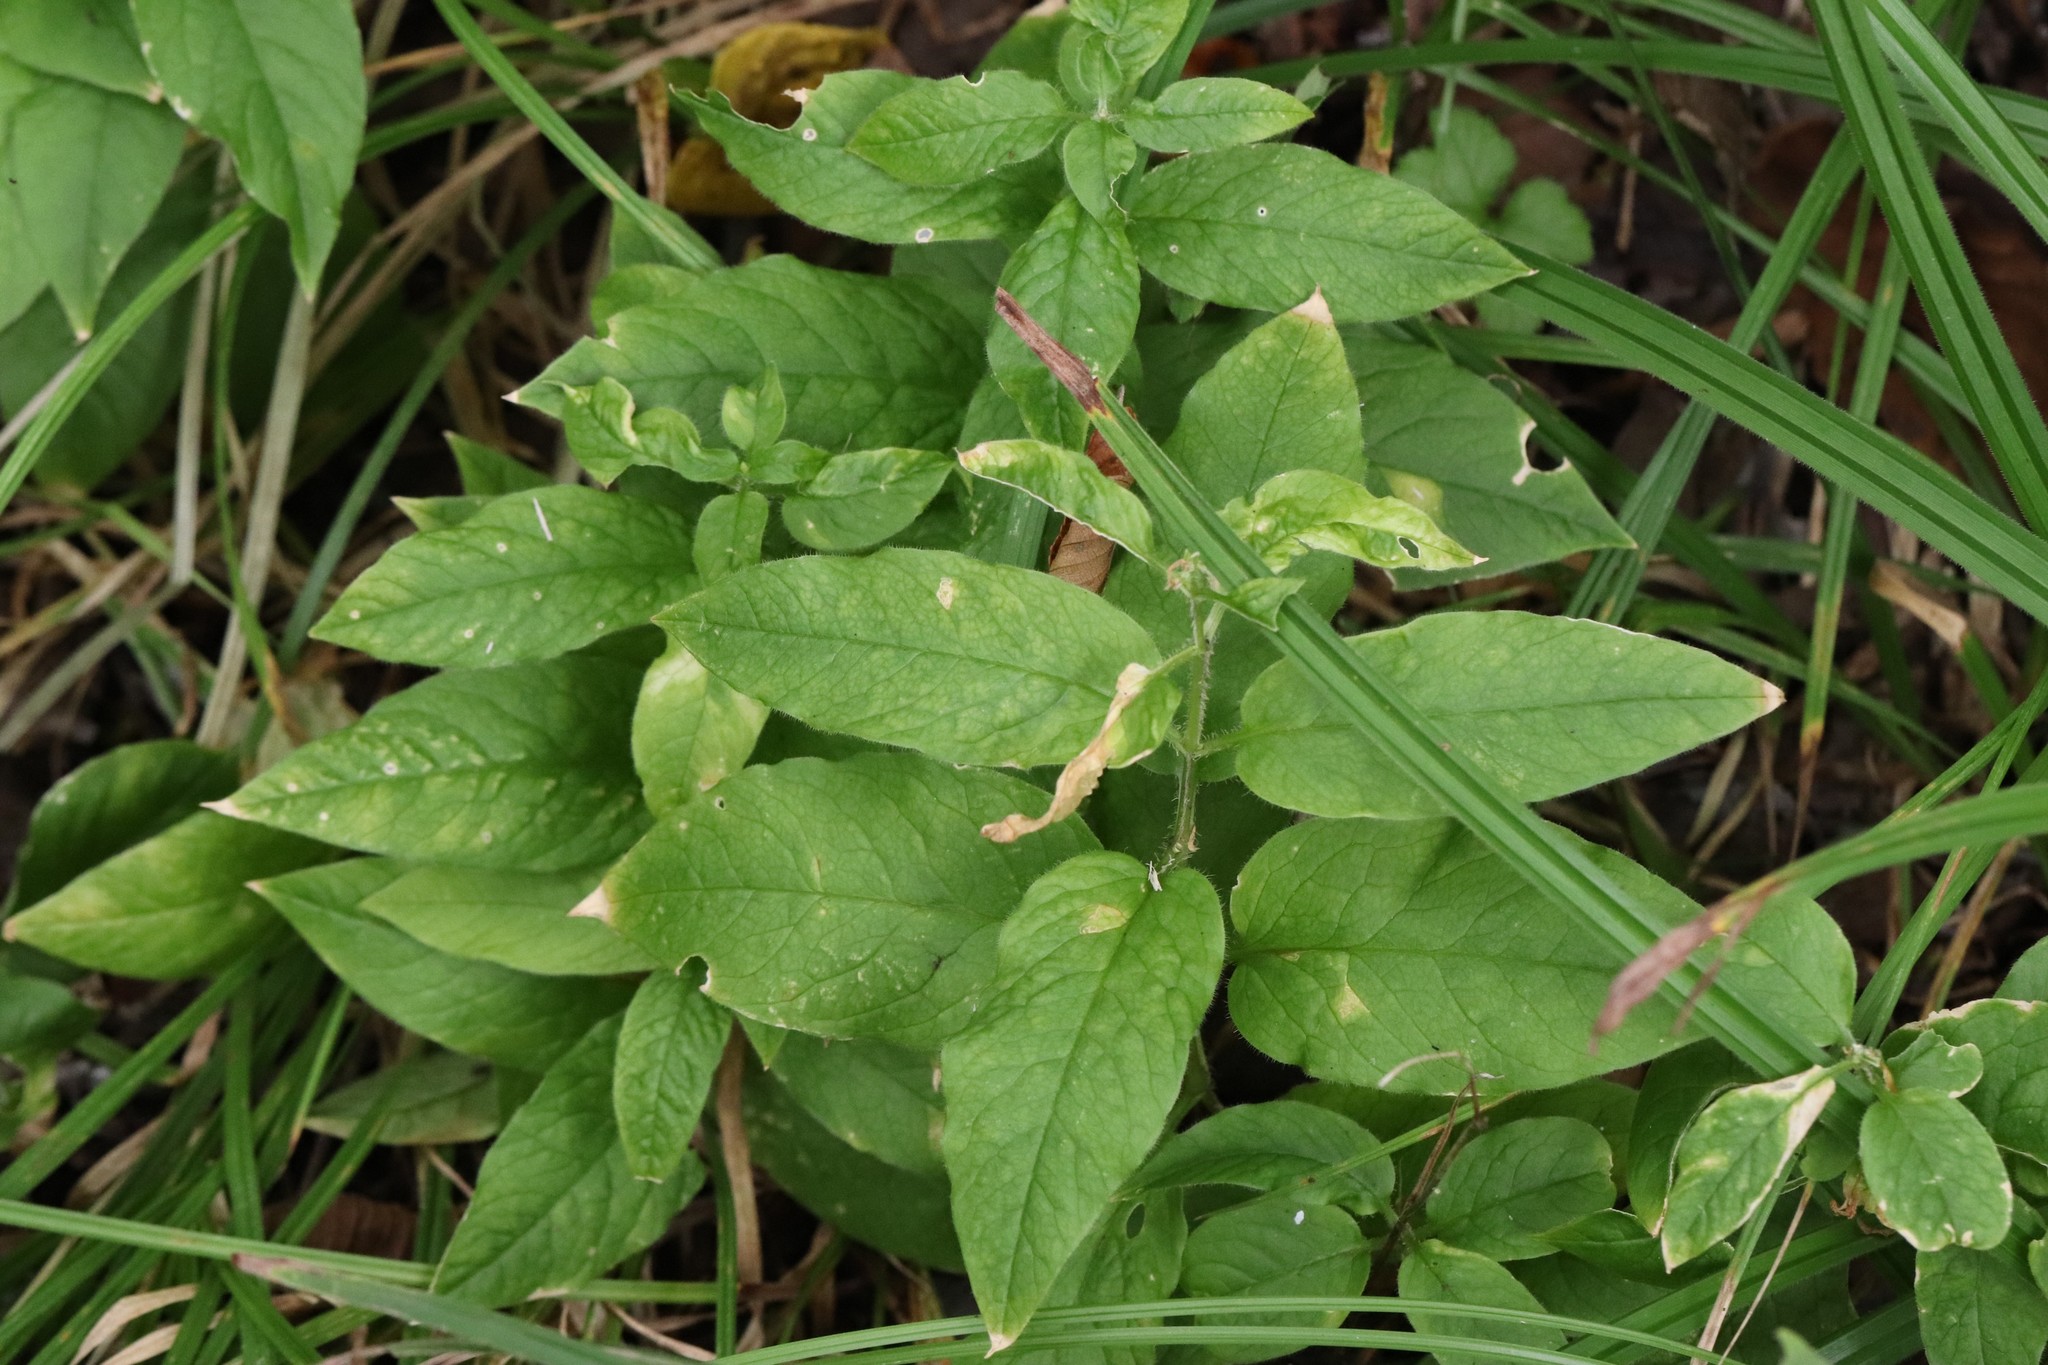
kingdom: Plantae
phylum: Tracheophyta
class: Magnoliopsida
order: Caryophyllales
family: Caryophyllaceae
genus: Stellaria
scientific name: Stellaria bungeana
